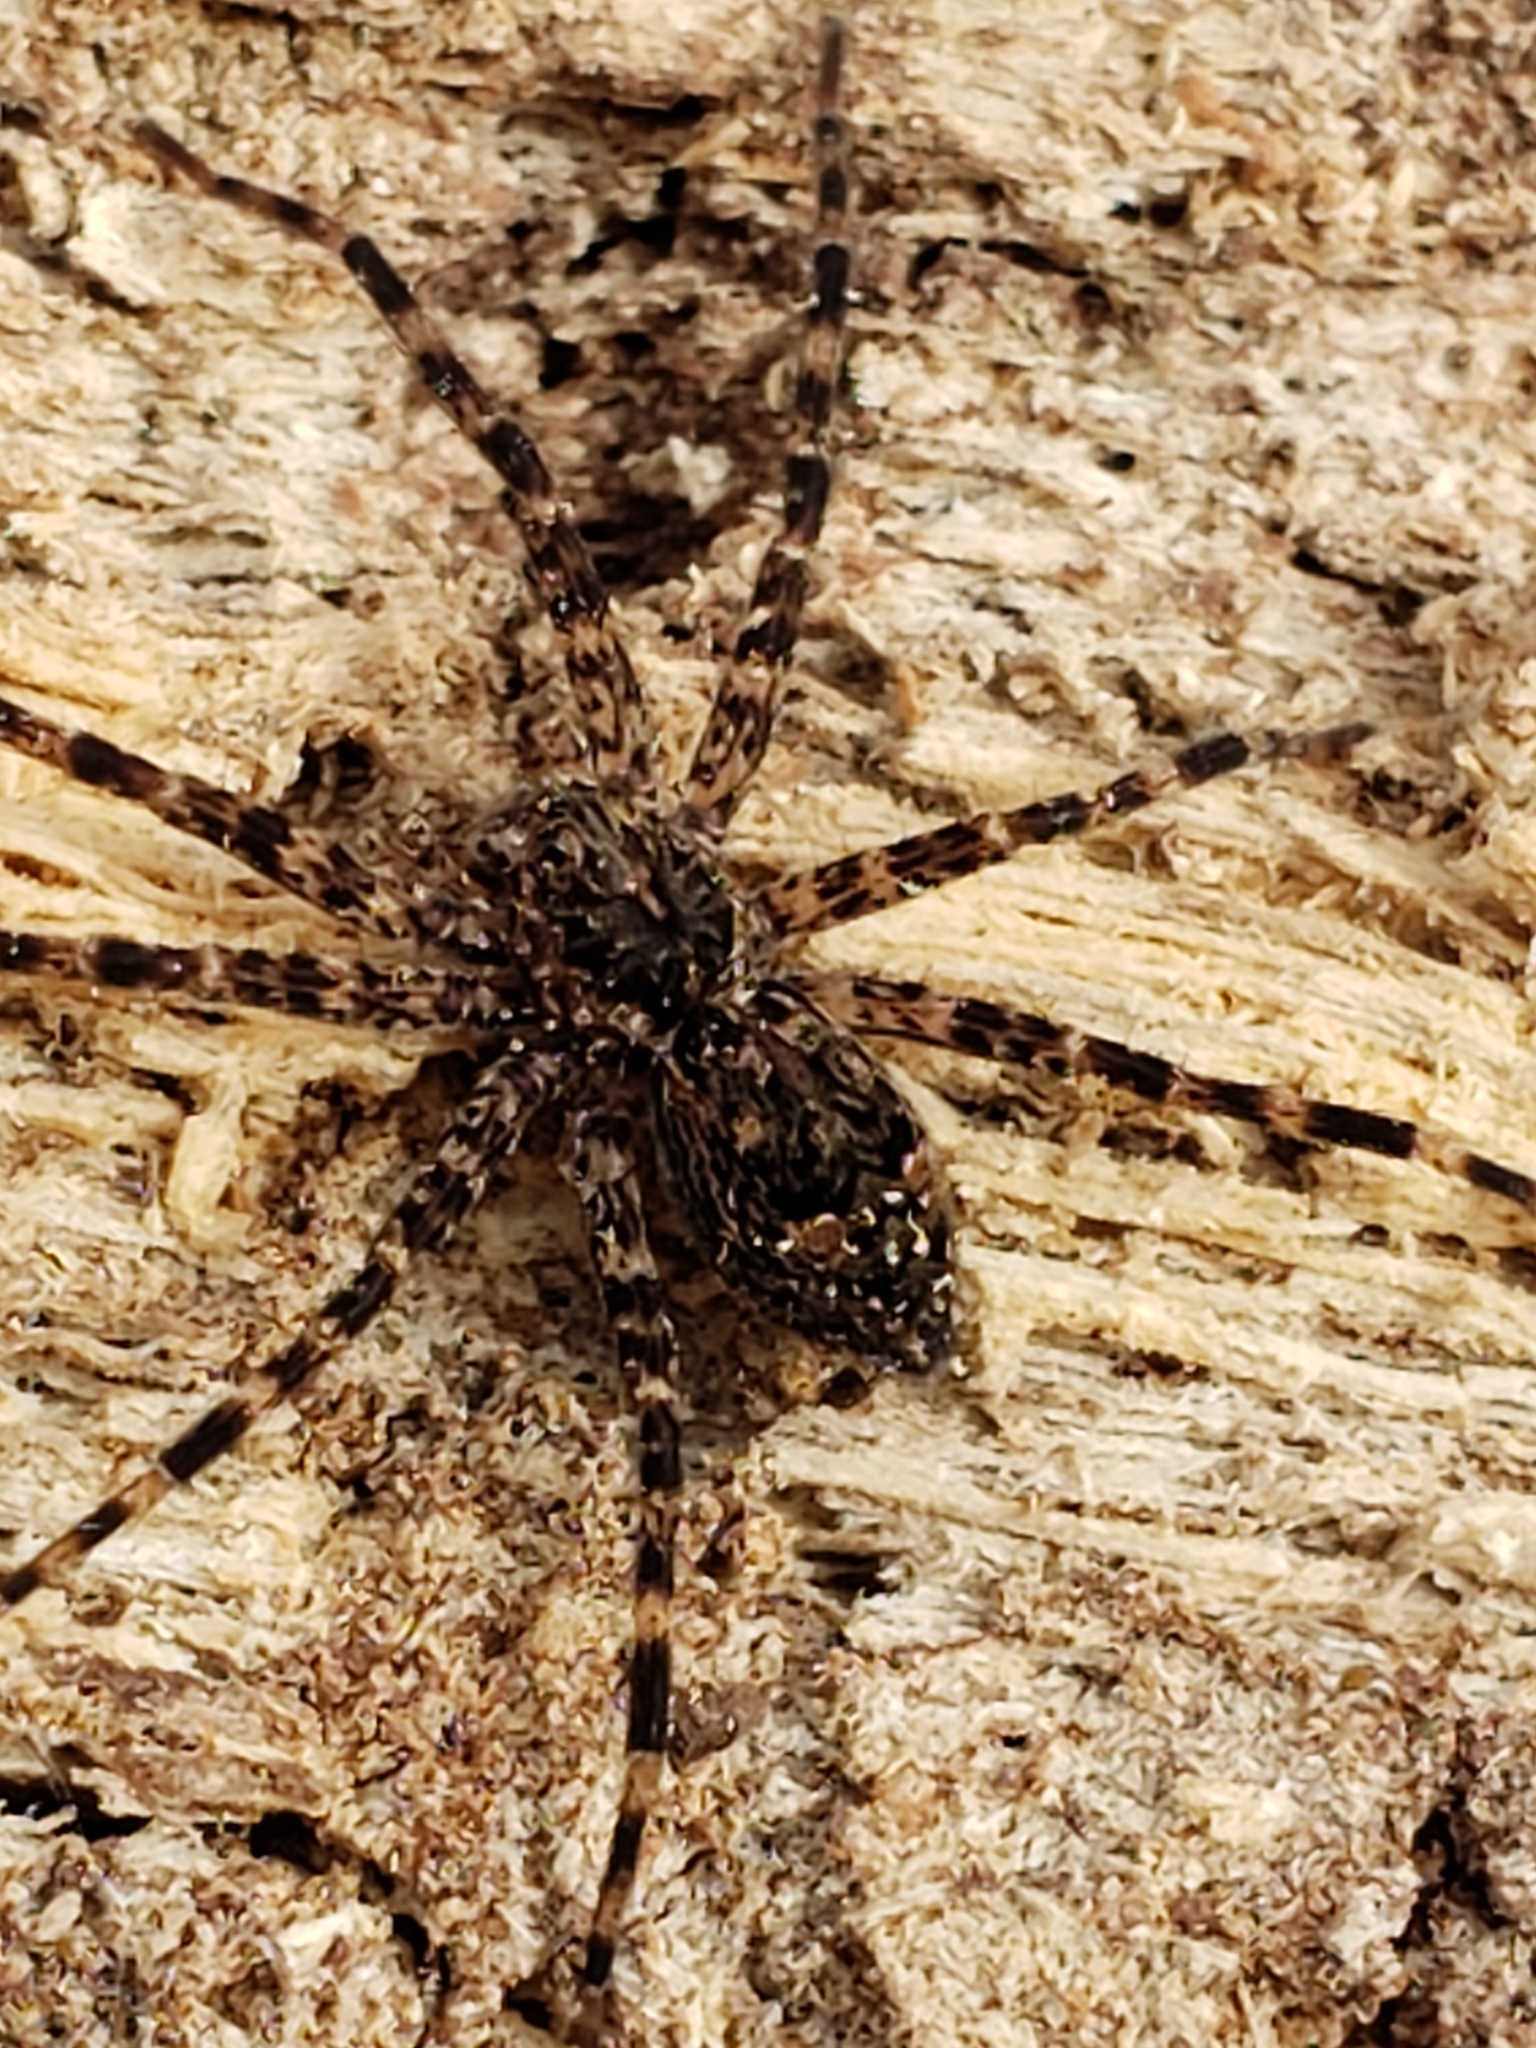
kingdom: Animalia
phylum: Arthropoda
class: Arachnida
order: Araneae
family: Pisauridae
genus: Dolomedes
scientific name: Dolomedes tenebrosus
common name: Dark fishing spider
